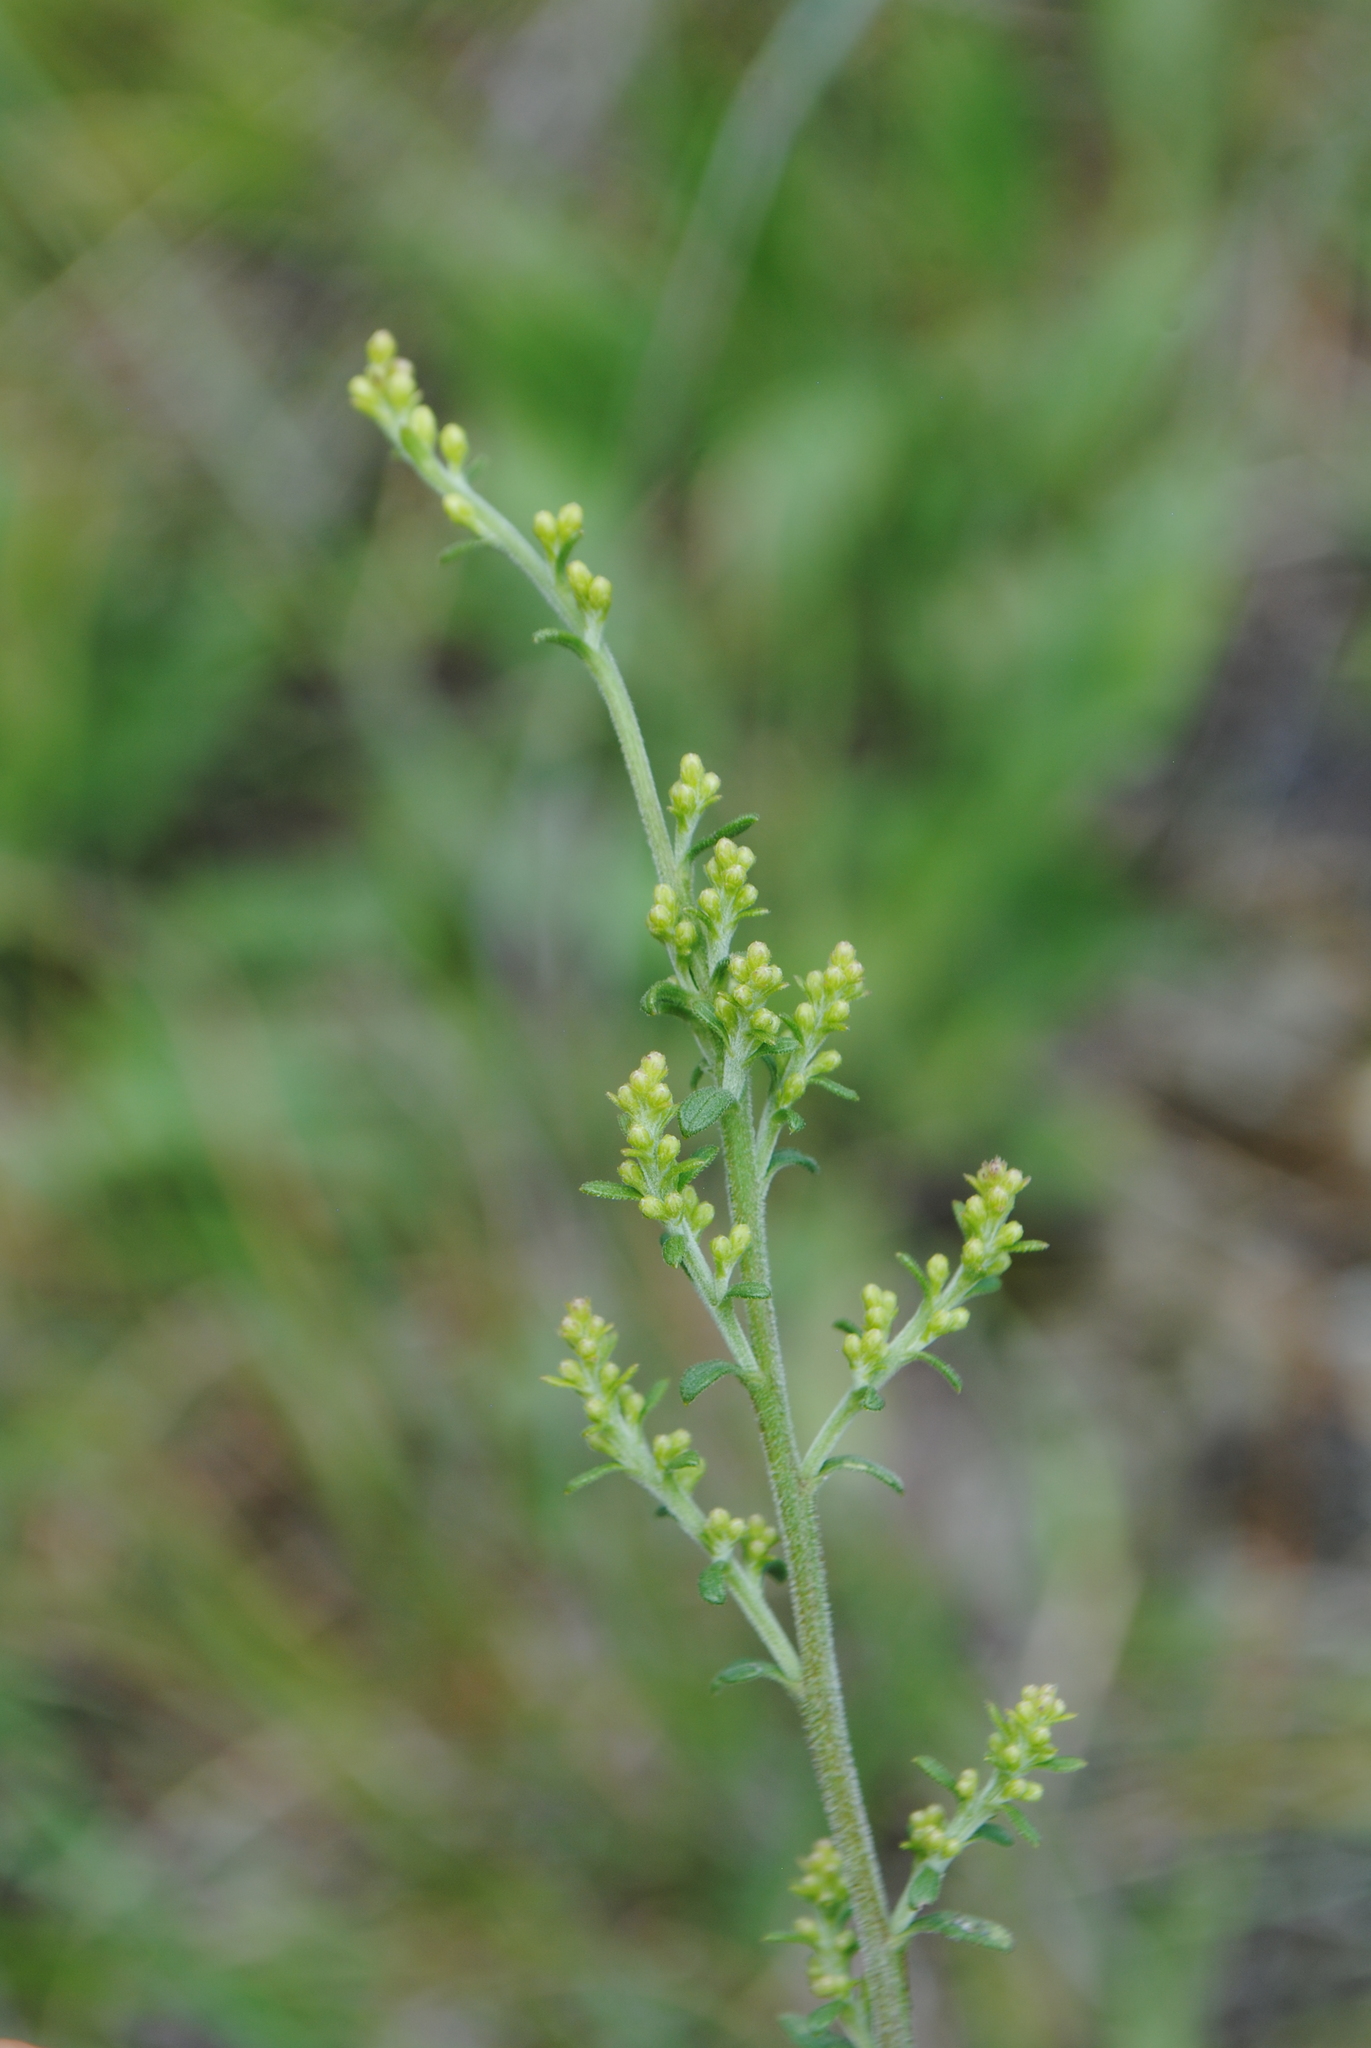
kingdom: Plantae
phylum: Tracheophyta
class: Magnoliopsida
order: Asterales
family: Asteraceae
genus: Solidago
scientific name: Solidago nemoralis
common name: Grey goldenrod
